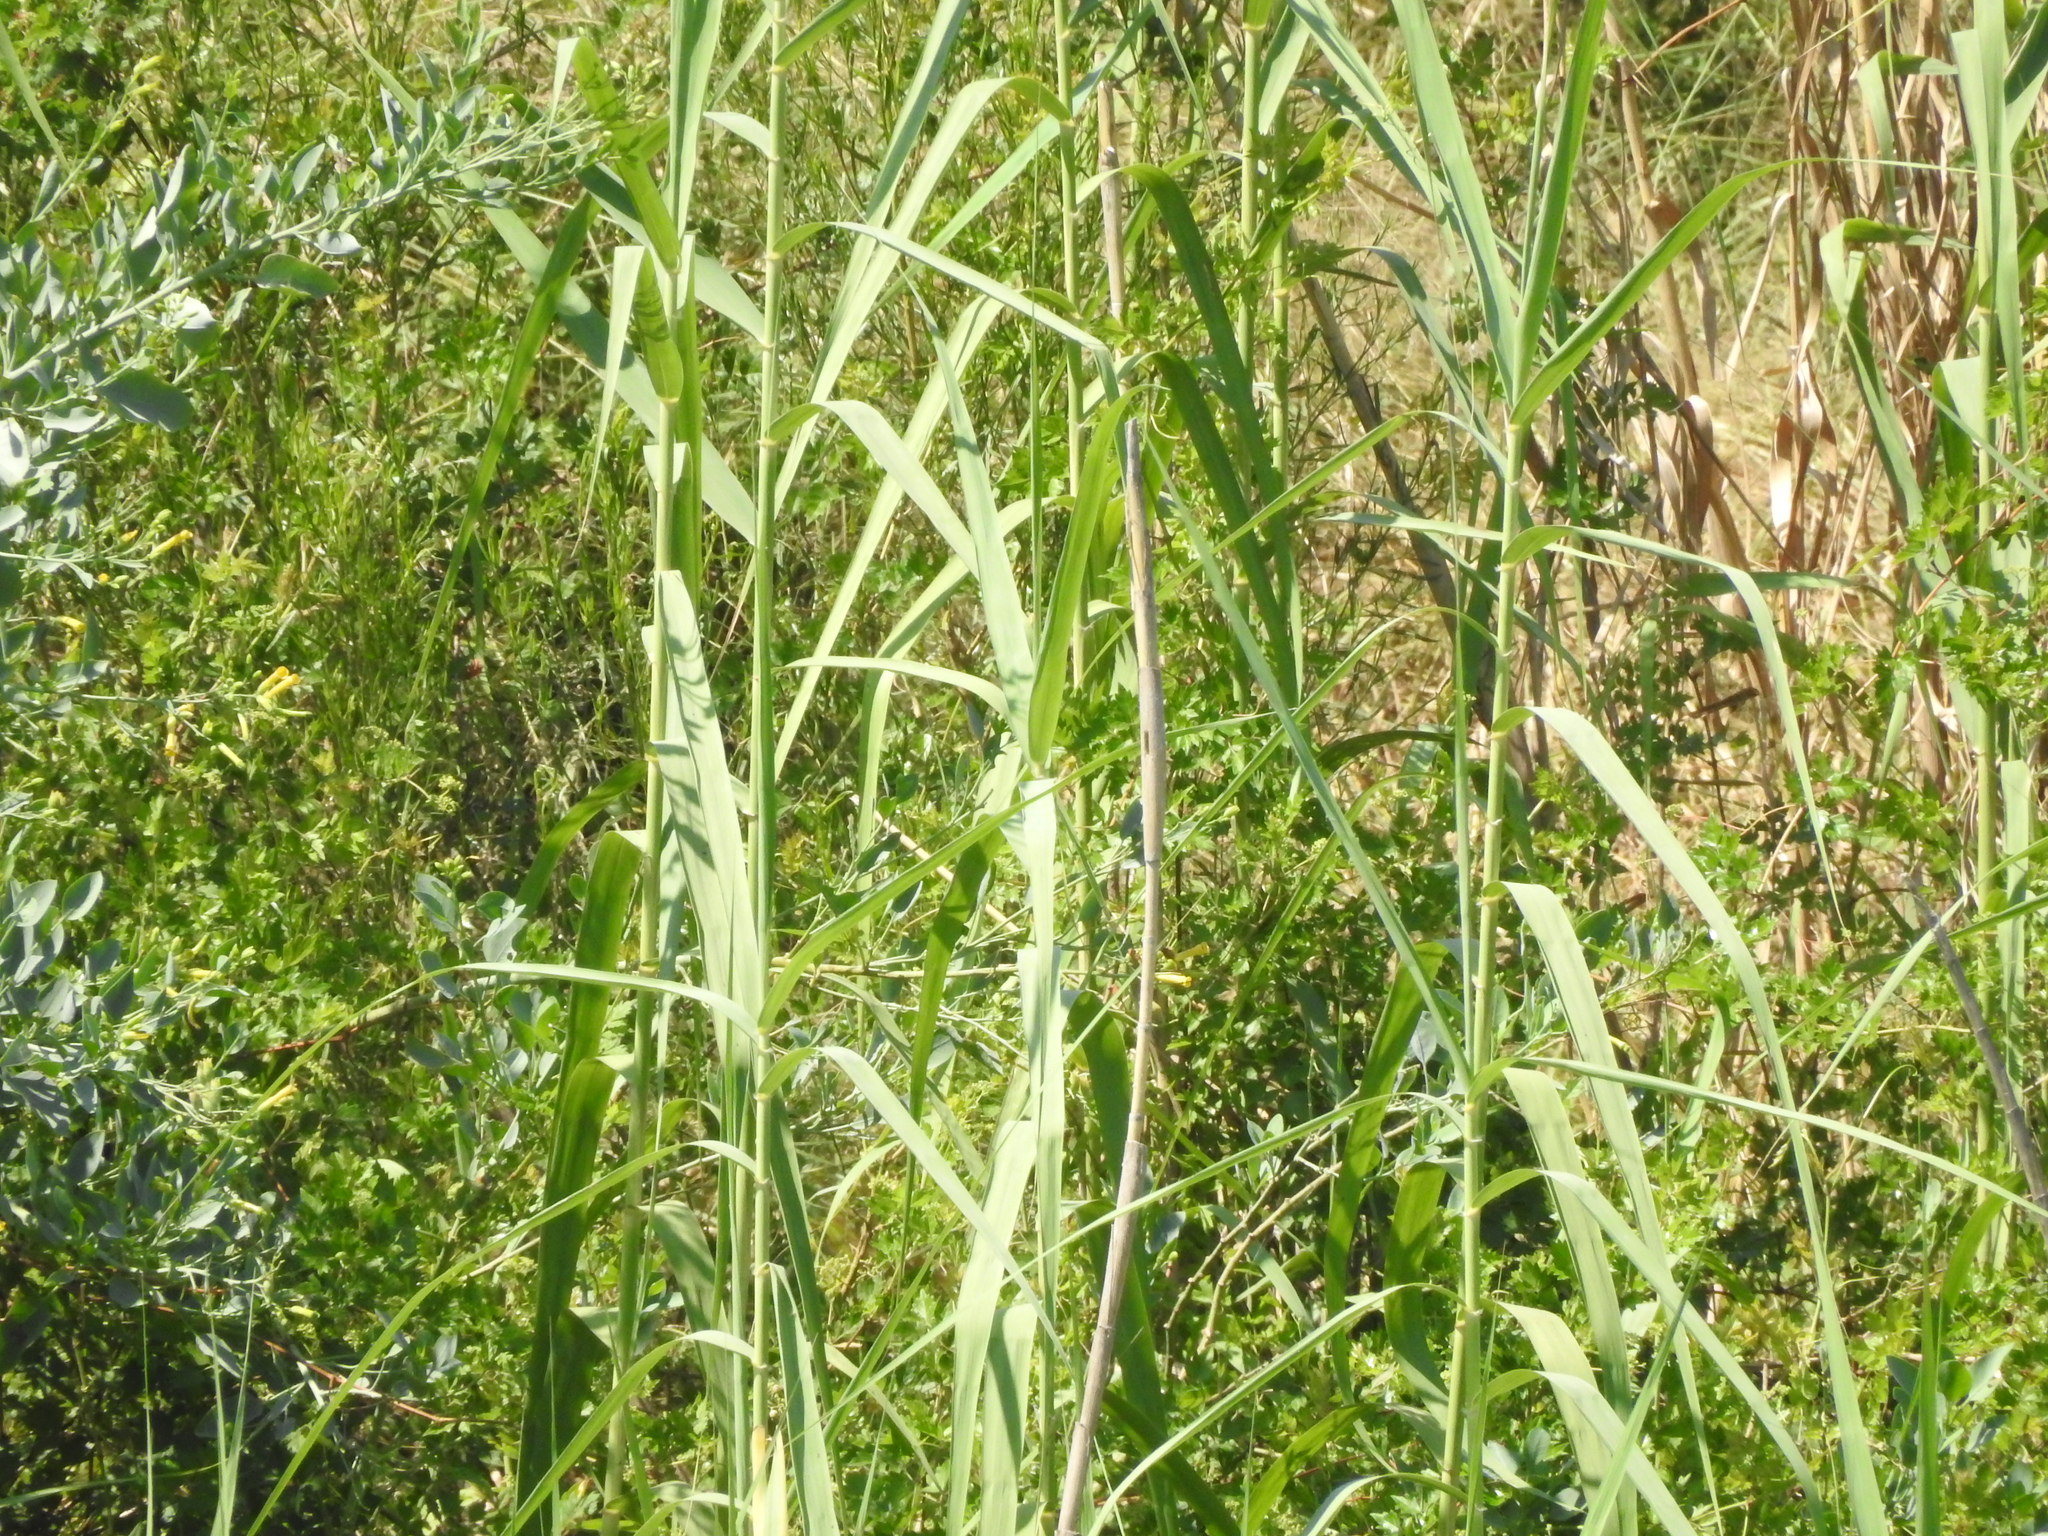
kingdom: Plantae
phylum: Tracheophyta
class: Liliopsida
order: Poales
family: Poaceae
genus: Arundo
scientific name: Arundo donax
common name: Giant reed
